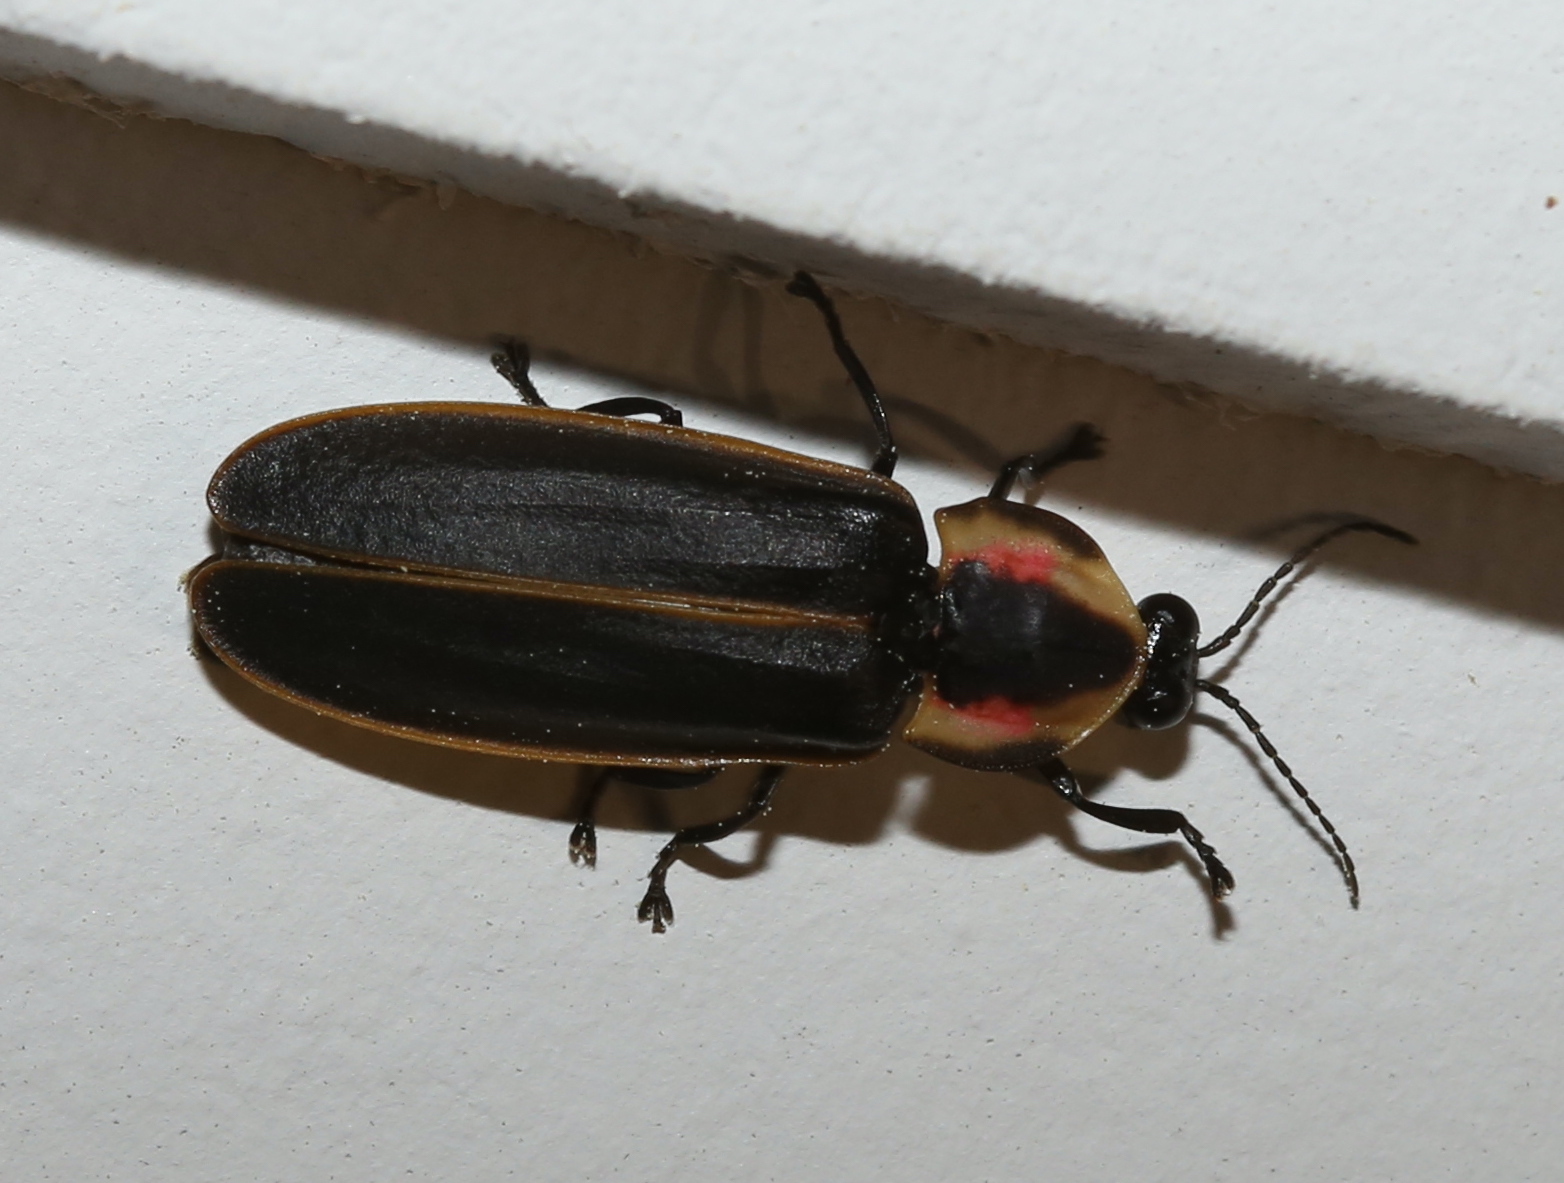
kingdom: Animalia
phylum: Arthropoda
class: Insecta
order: Coleoptera
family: Lampyridae
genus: Pyractomena
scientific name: Pyractomena borealis
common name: Northern firefly
